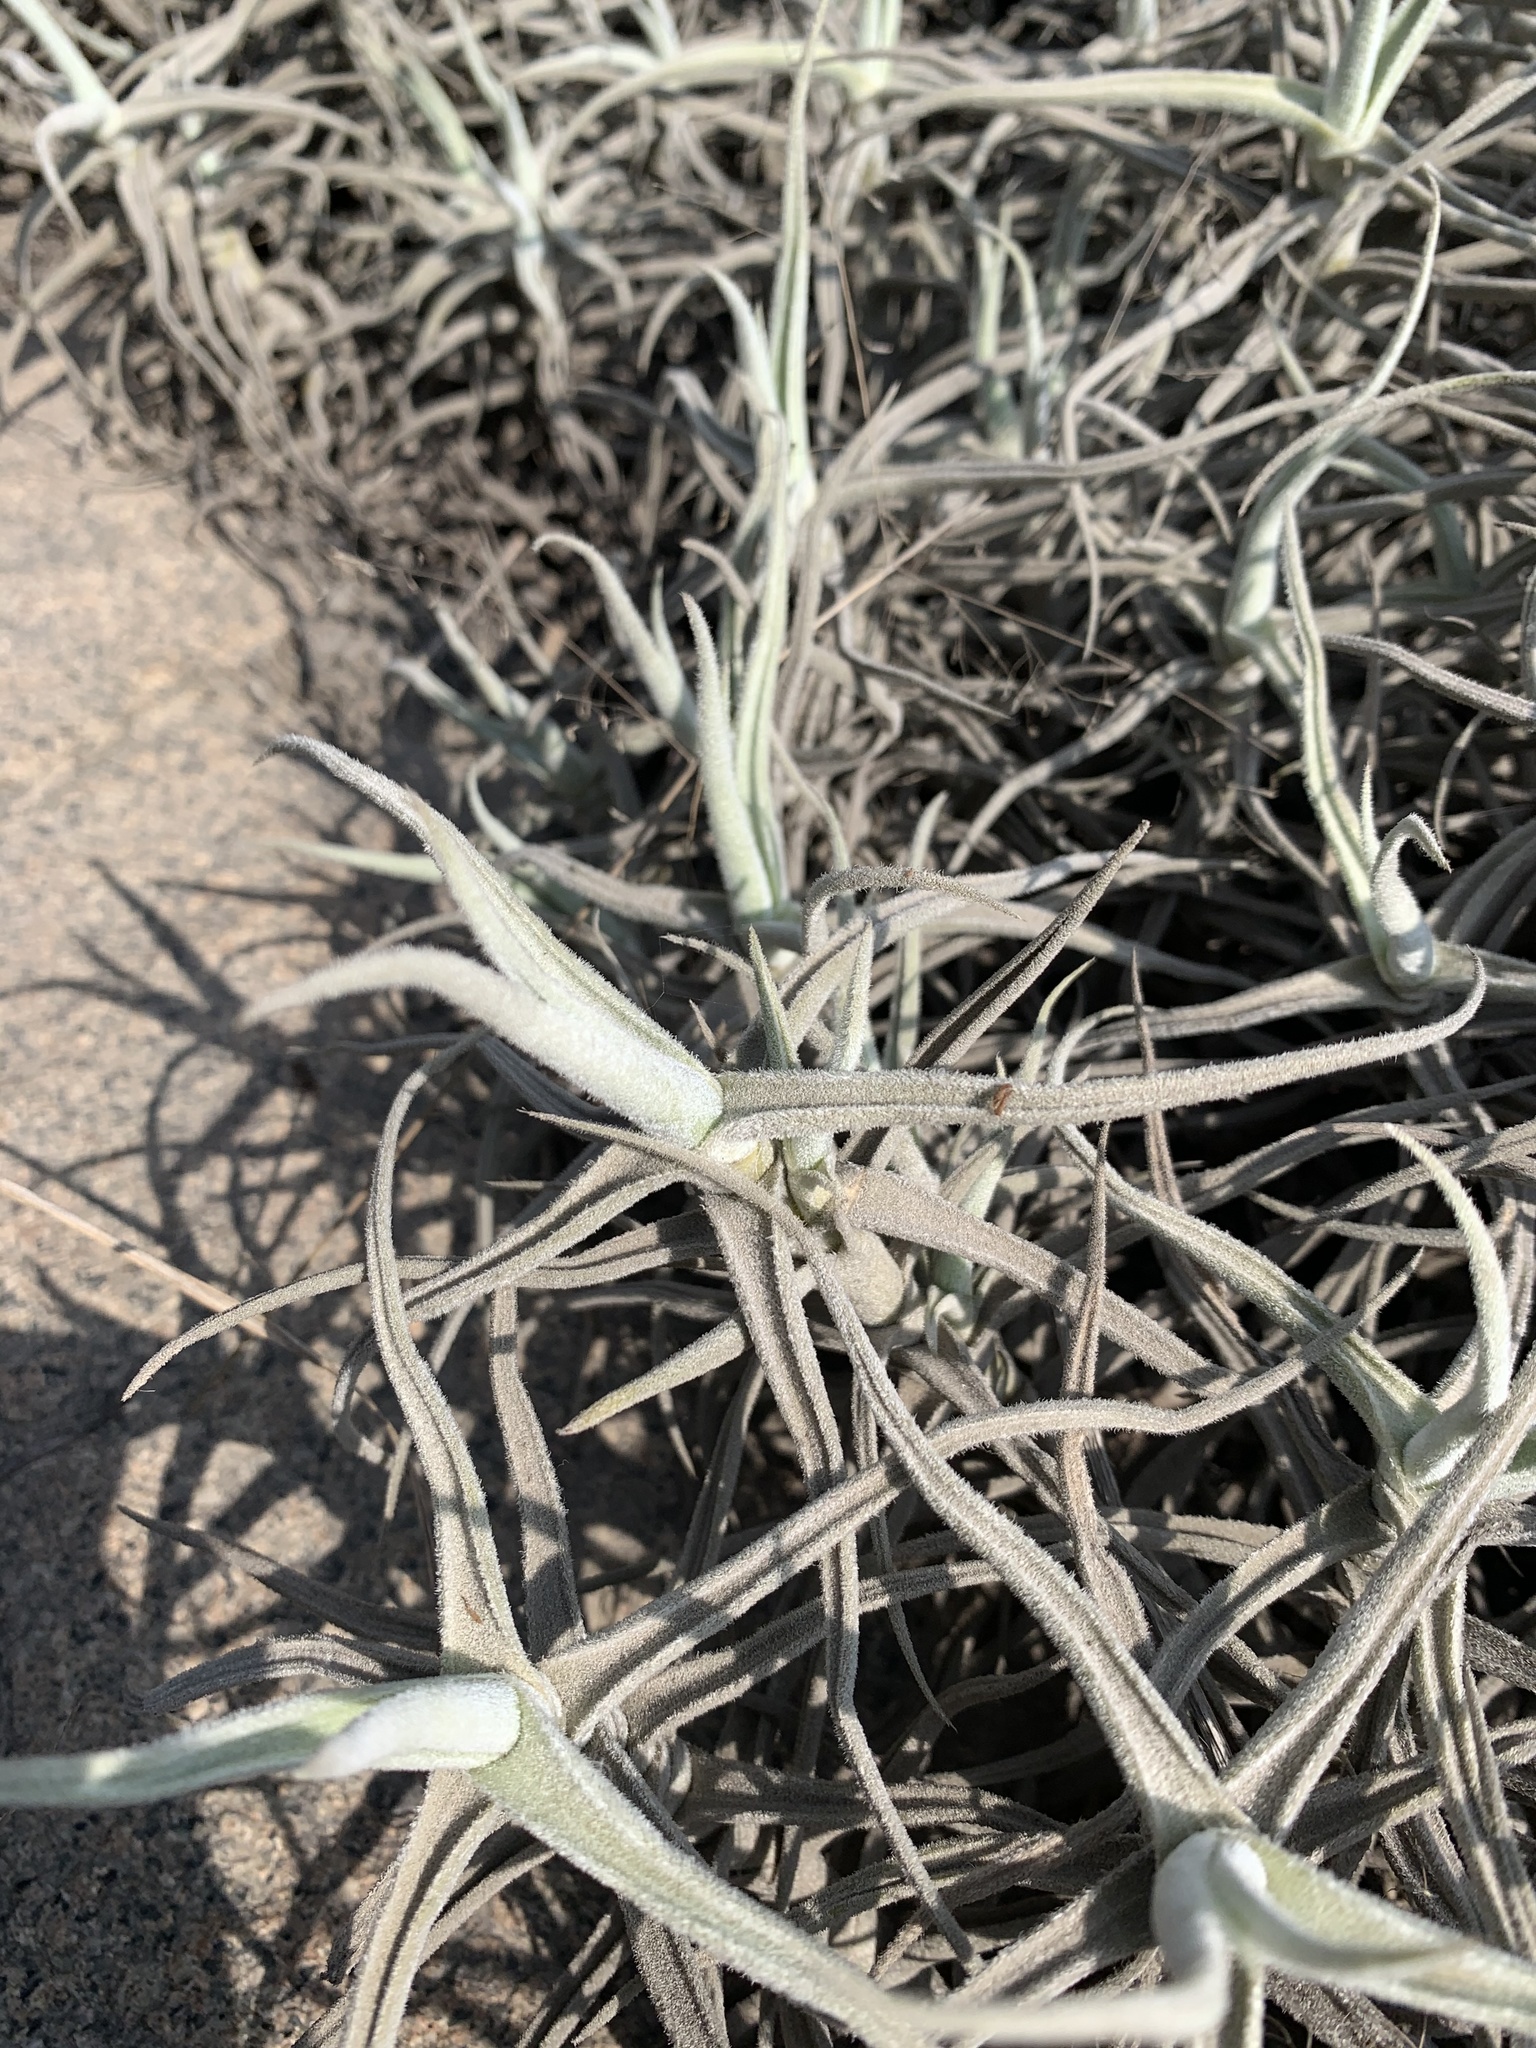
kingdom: Plantae
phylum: Tracheophyta
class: Liliopsida
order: Poales
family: Bromeliaceae
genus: Tillandsia
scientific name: Tillandsia paleacea
